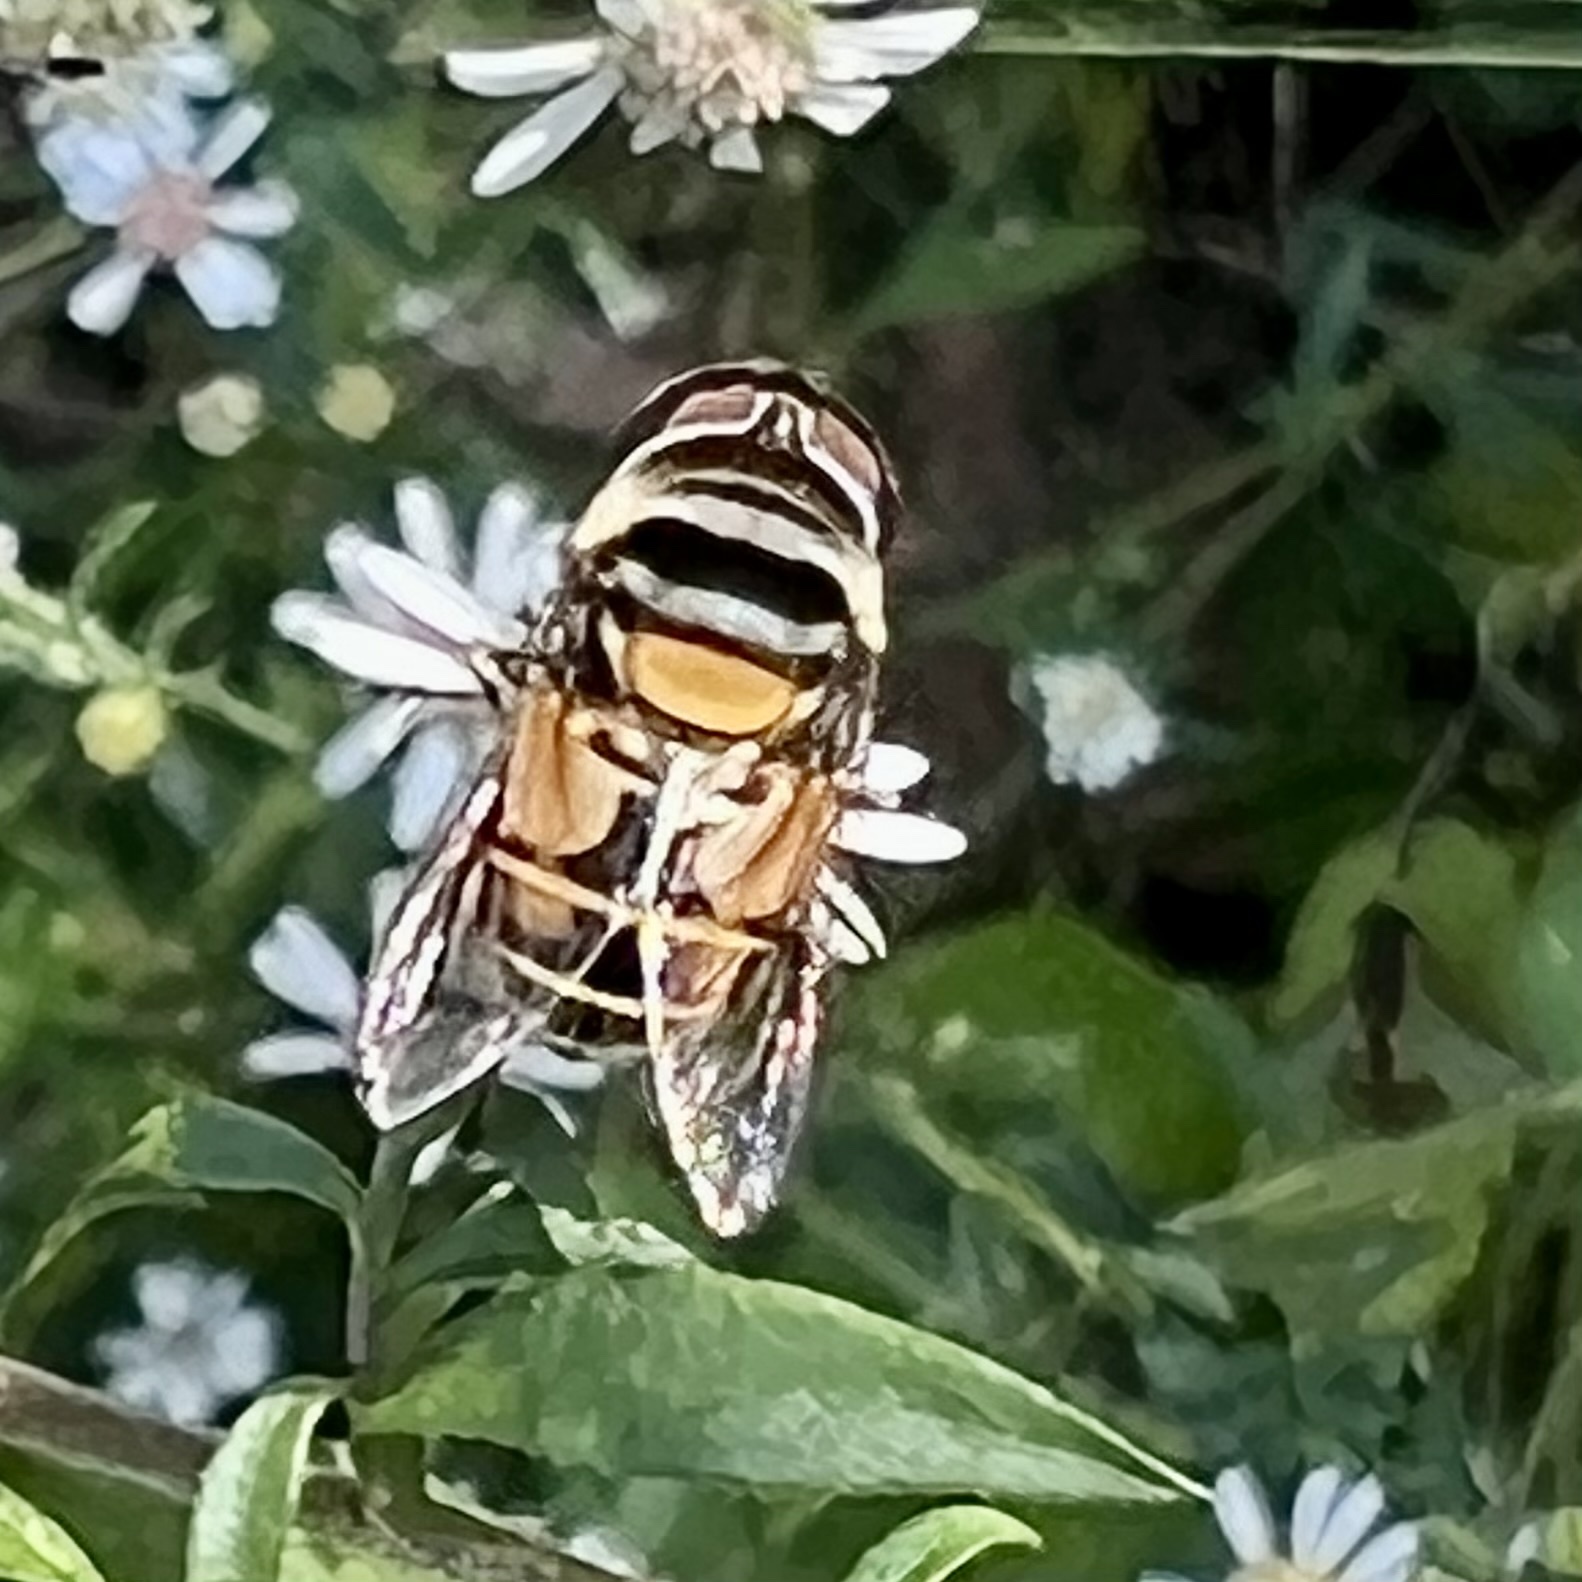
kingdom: Animalia
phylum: Arthropoda
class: Insecta
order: Diptera
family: Syrphidae
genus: Palpada
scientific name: Palpada agrorum
